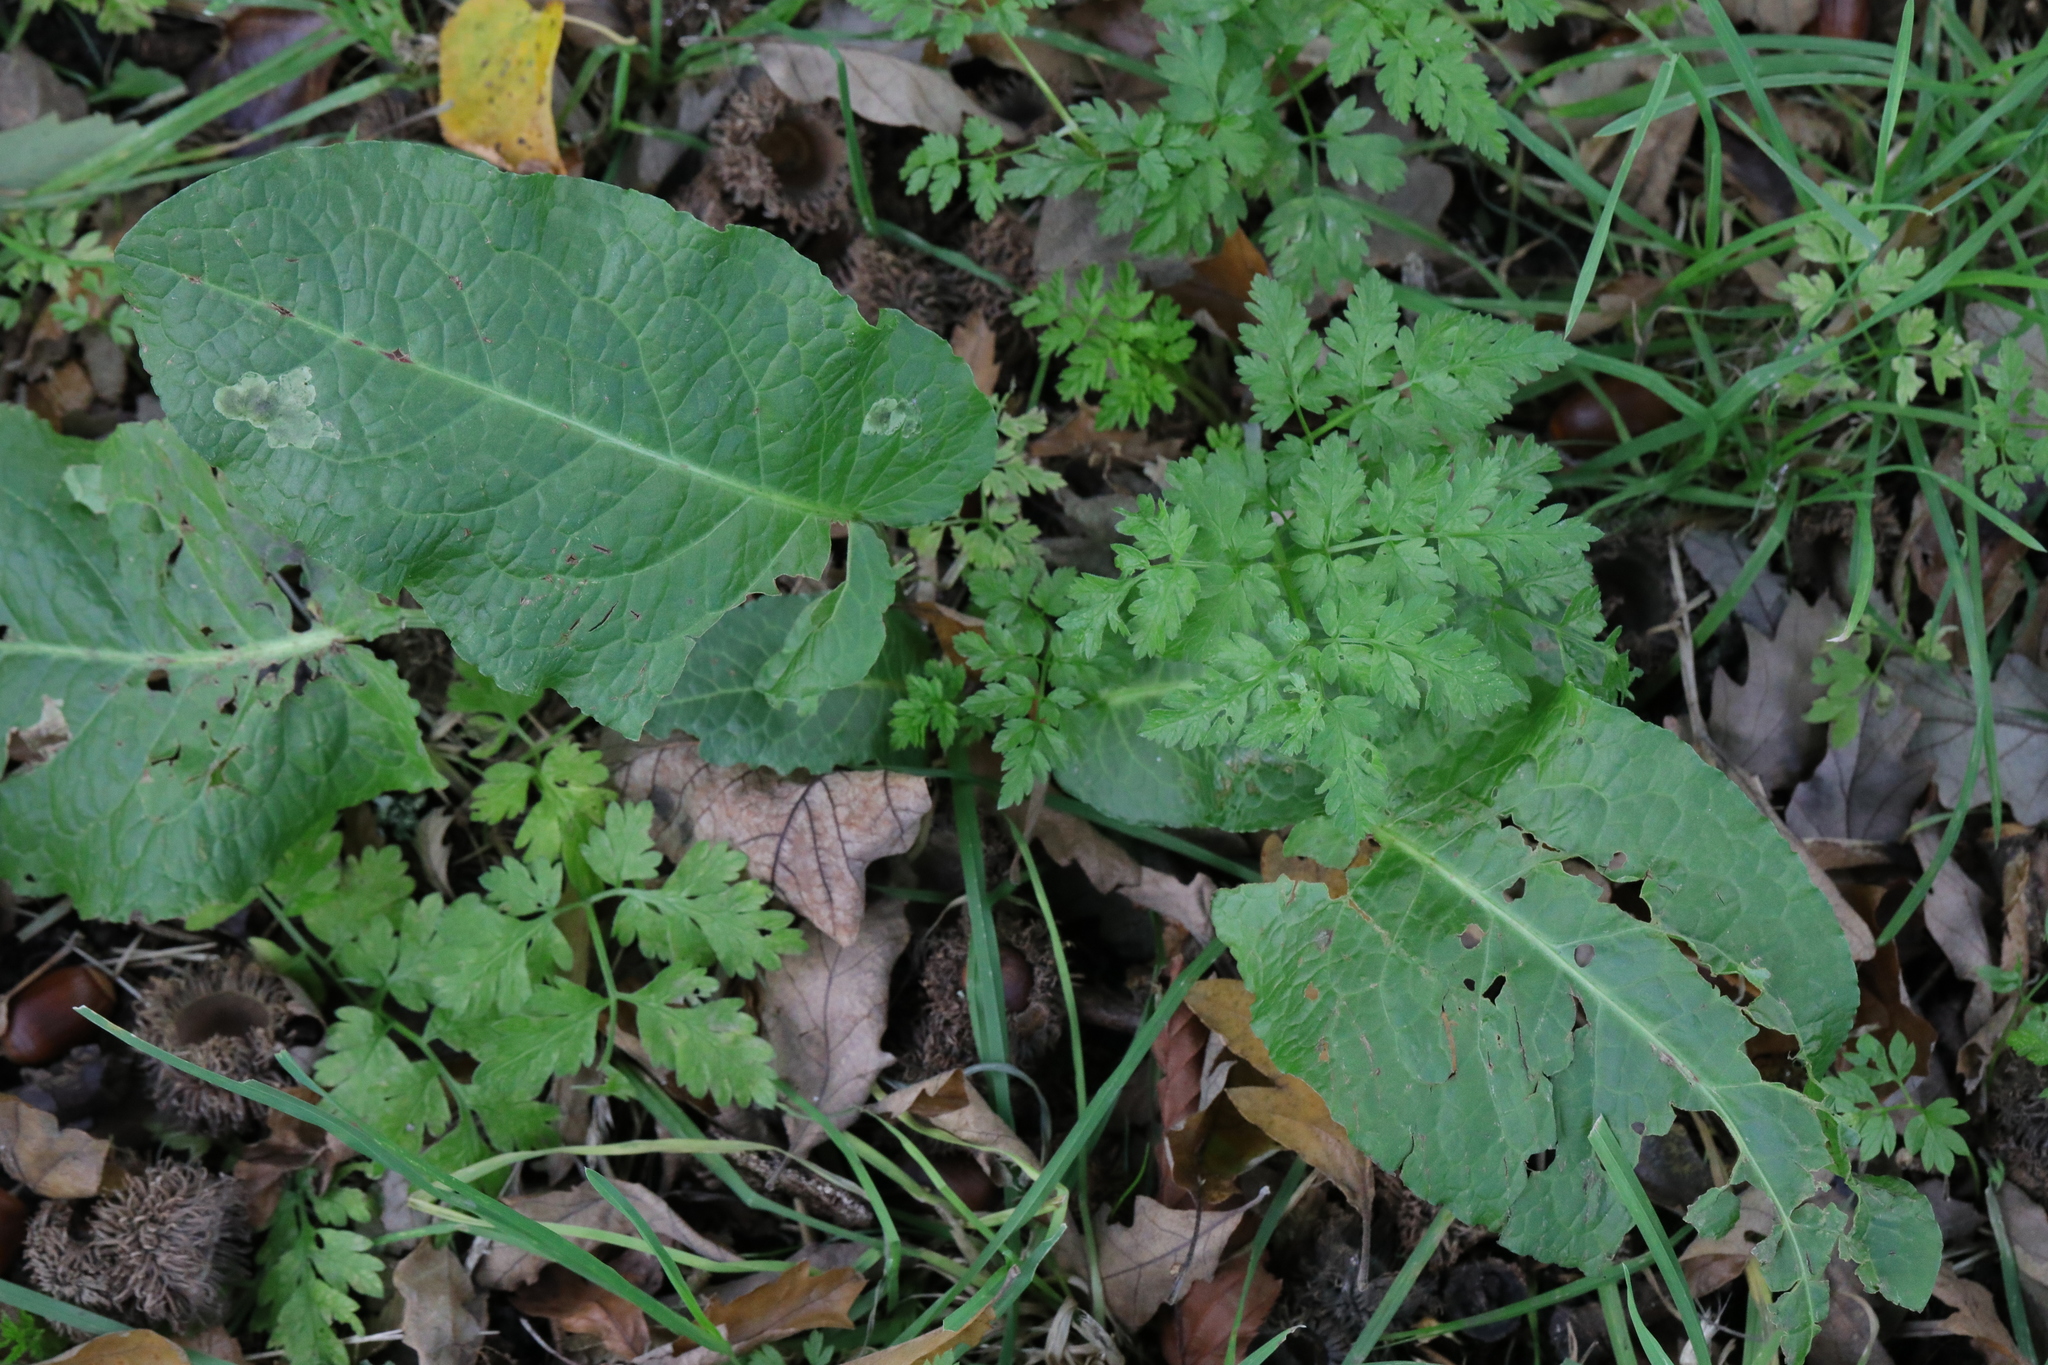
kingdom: Plantae
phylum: Tracheophyta
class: Magnoliopsida
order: Caryophyllales
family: Polygonaceae
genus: Rumex
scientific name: Rumex obtusifolius
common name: Bitter dock
